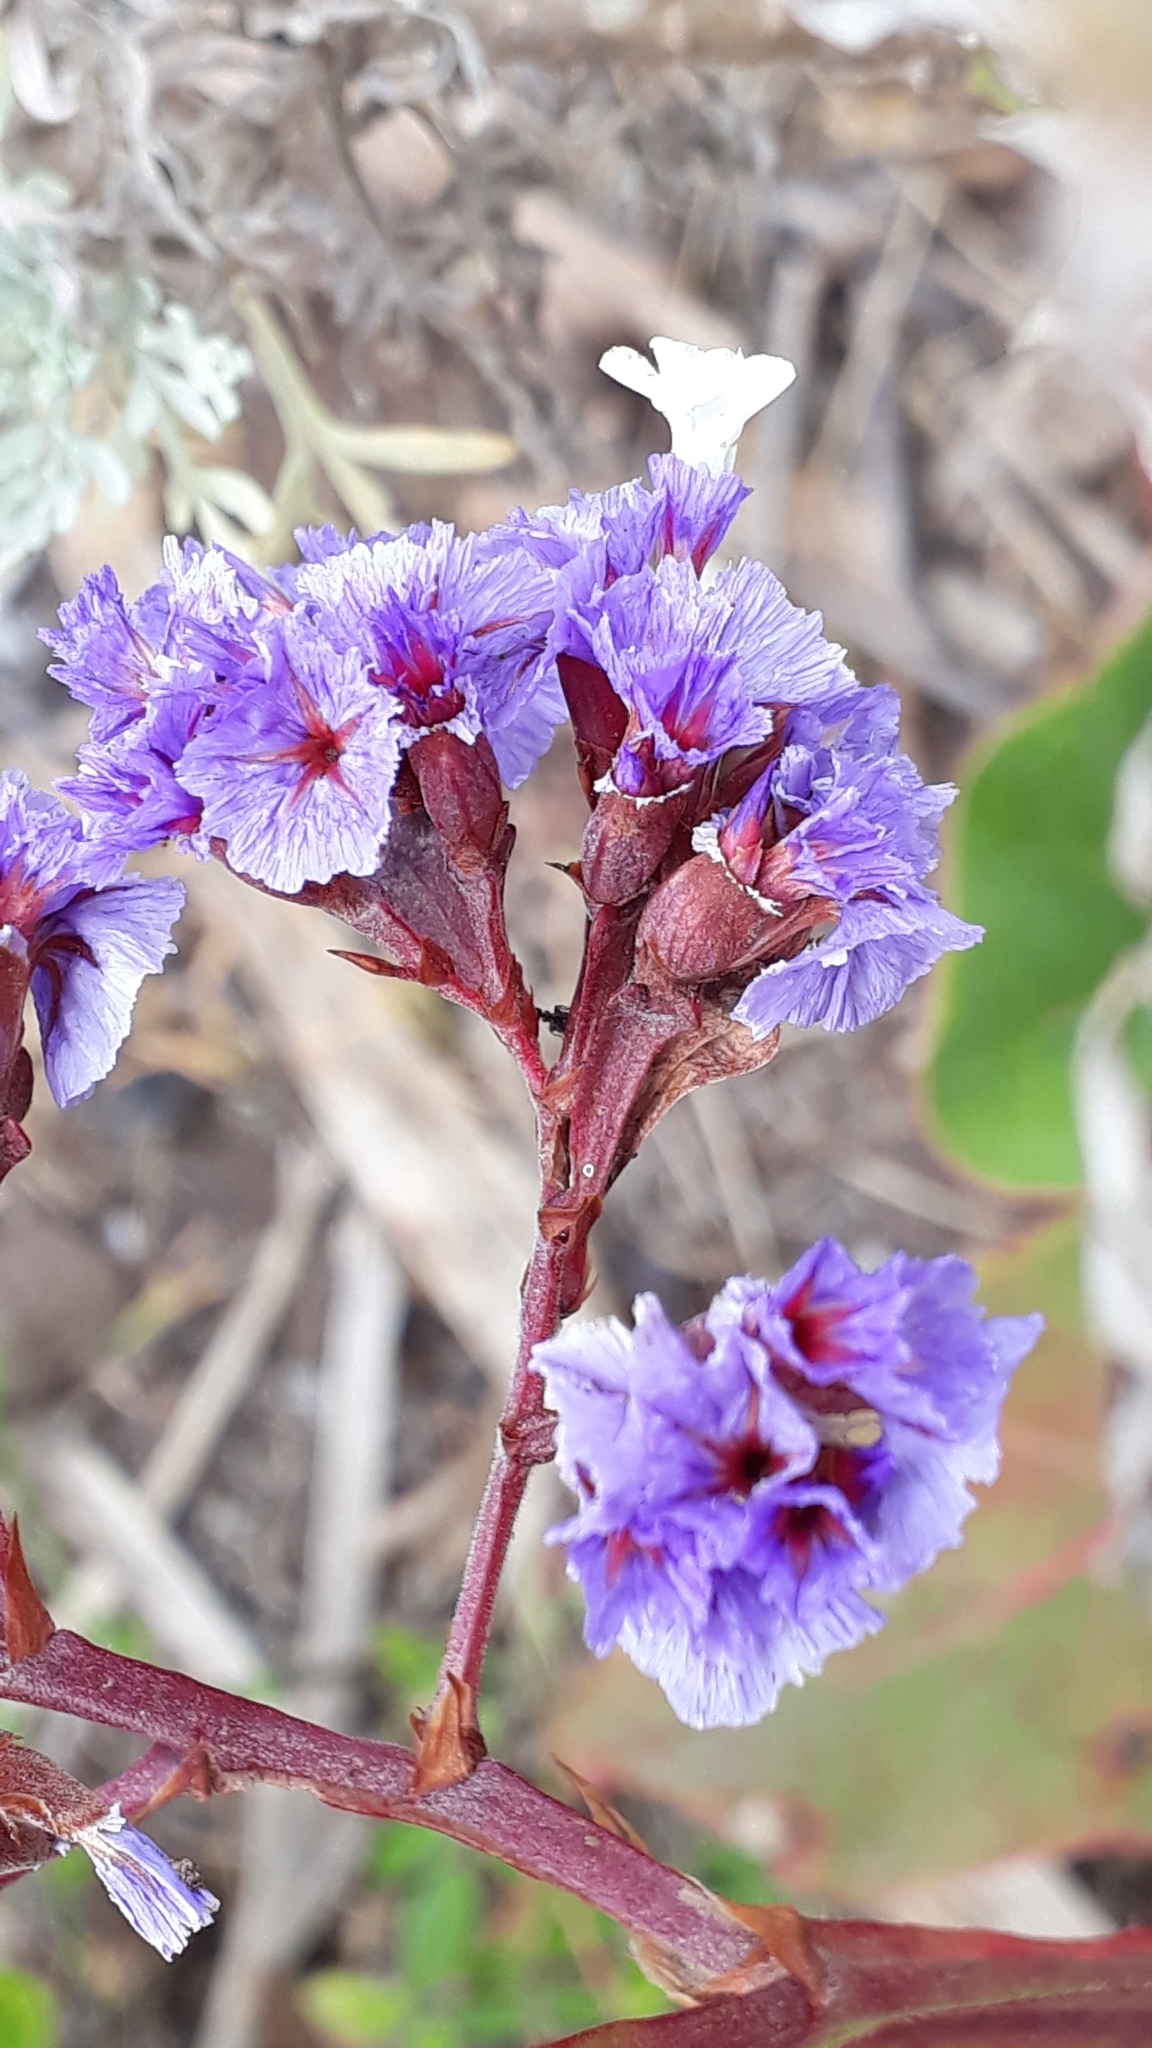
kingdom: Plantae
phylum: Tracheophyta
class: Magnoliopsida
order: Caryophyllales
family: Plumbaginaceae
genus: Limonium
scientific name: Limonium macrophyllum
